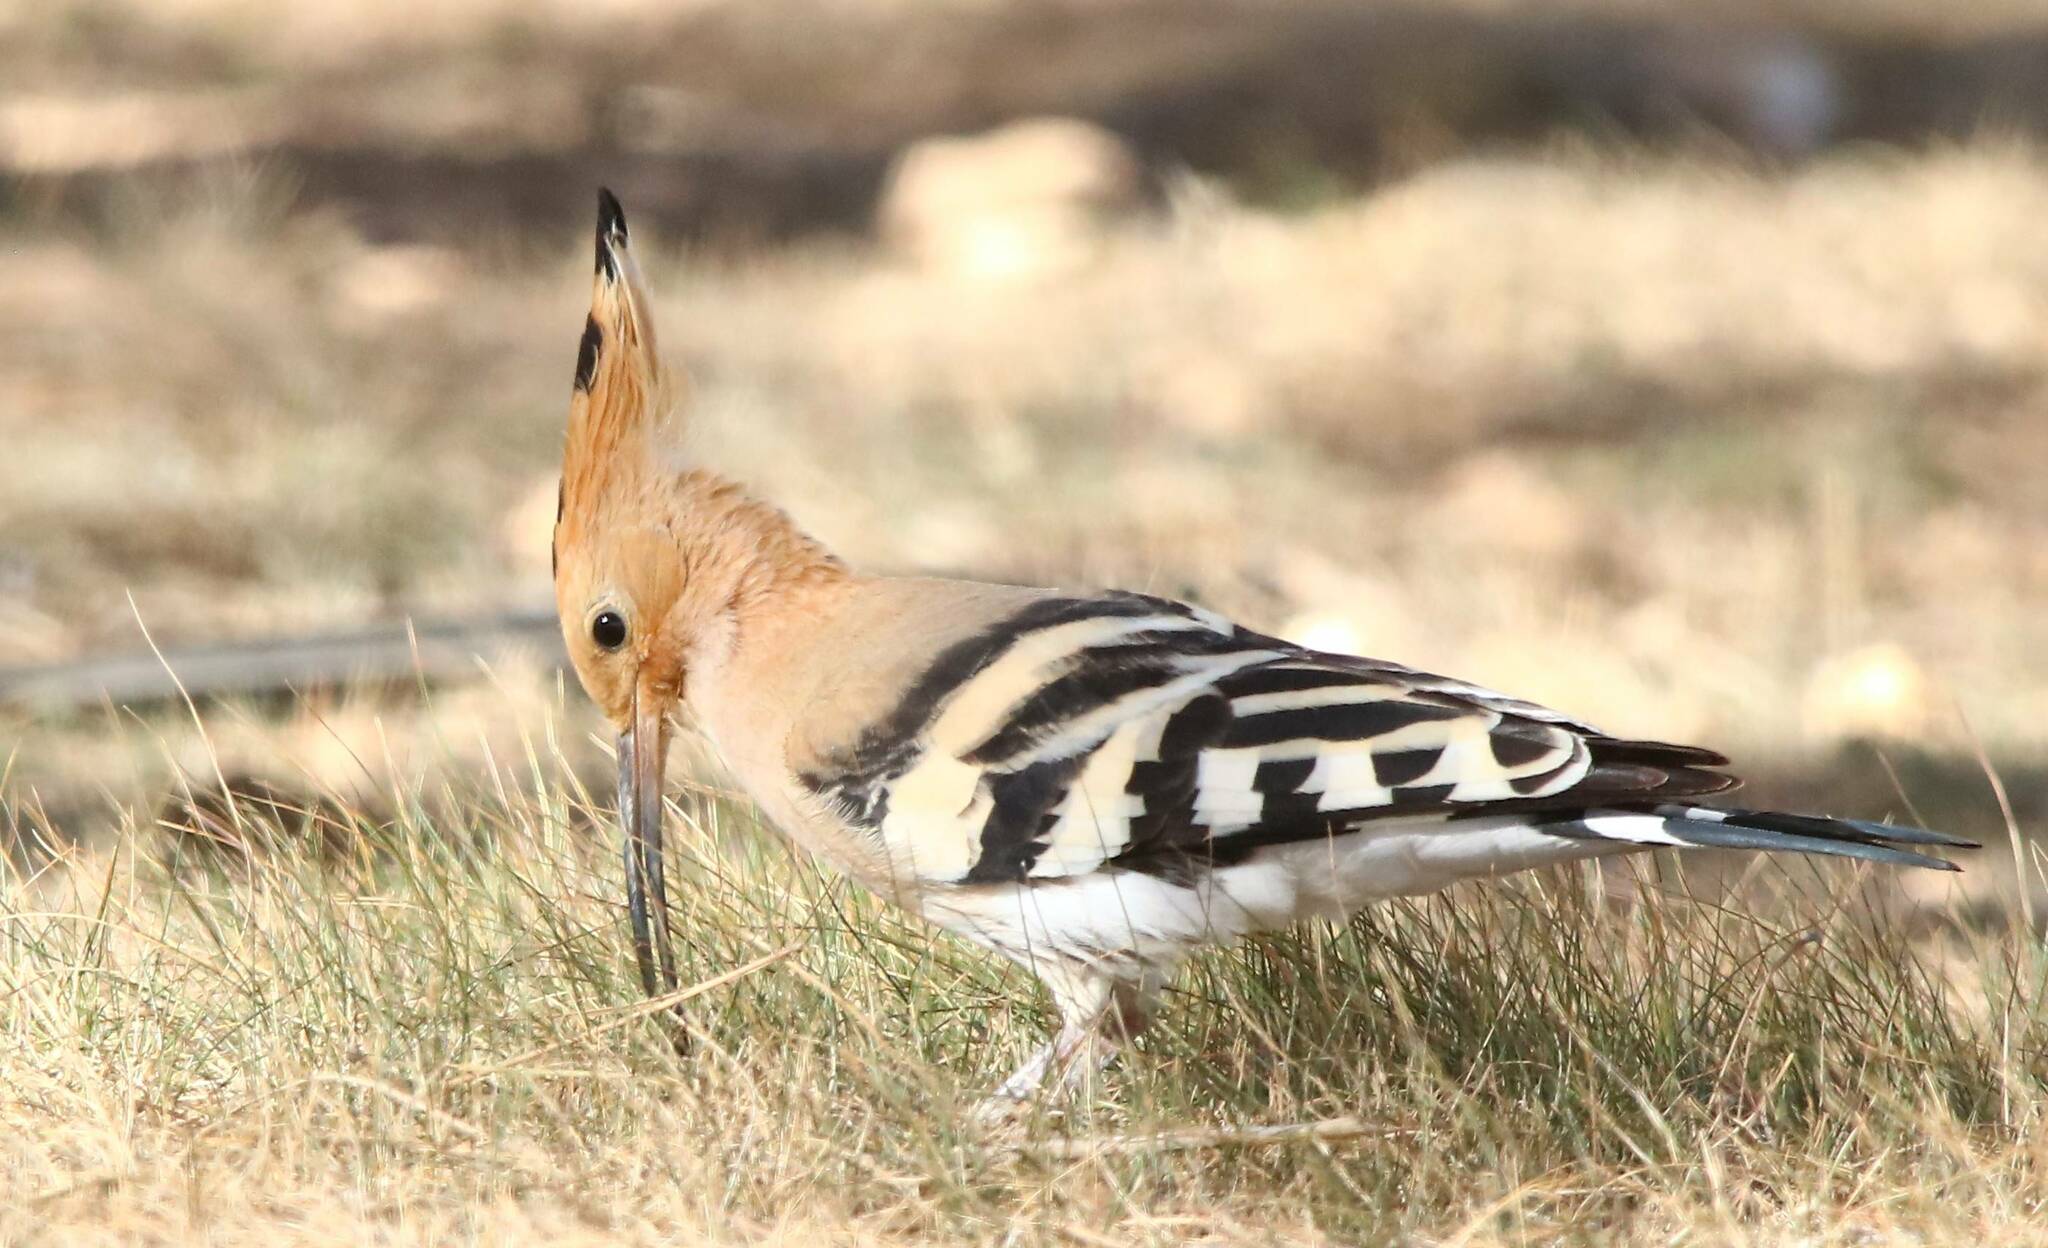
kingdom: Animalia
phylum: Chordata
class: Aves
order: Bucerotiformes
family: Upupidae
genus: Upupa
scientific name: Upupa epops
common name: Eurasian hoopoe
